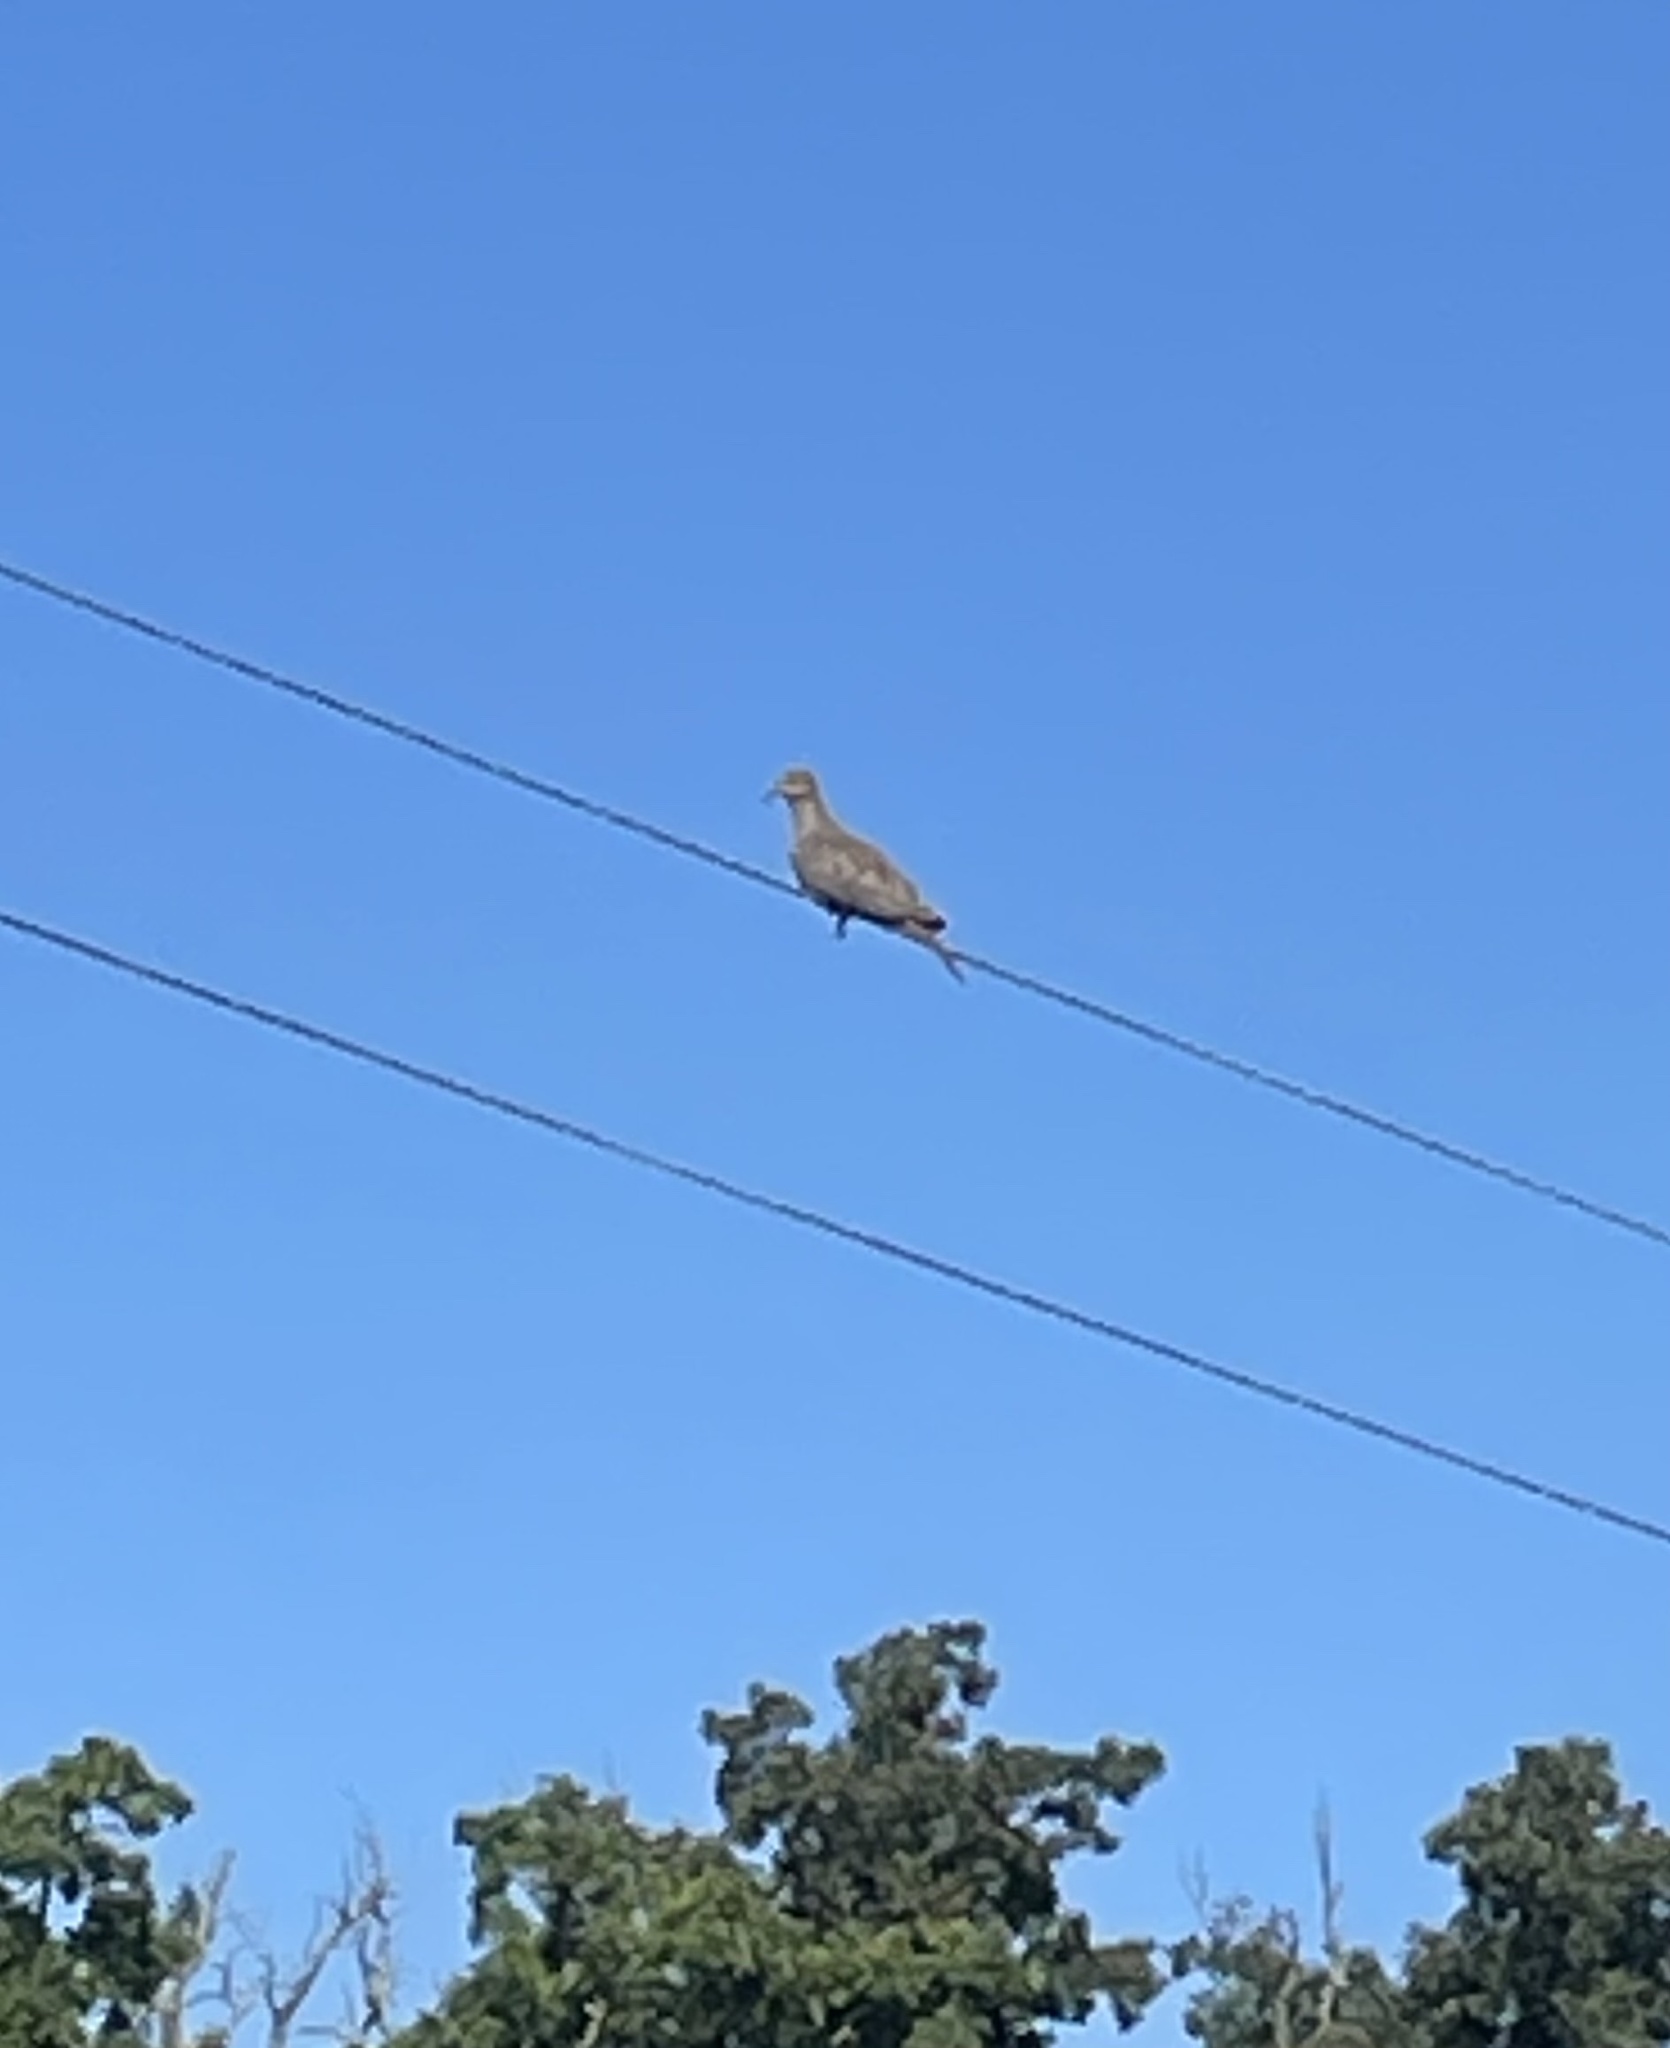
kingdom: Animalia
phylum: Chordata
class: Aves
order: Columbiformes
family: Columbidae
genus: Zenaida
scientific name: Zenaida macroura
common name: Mourning dove
